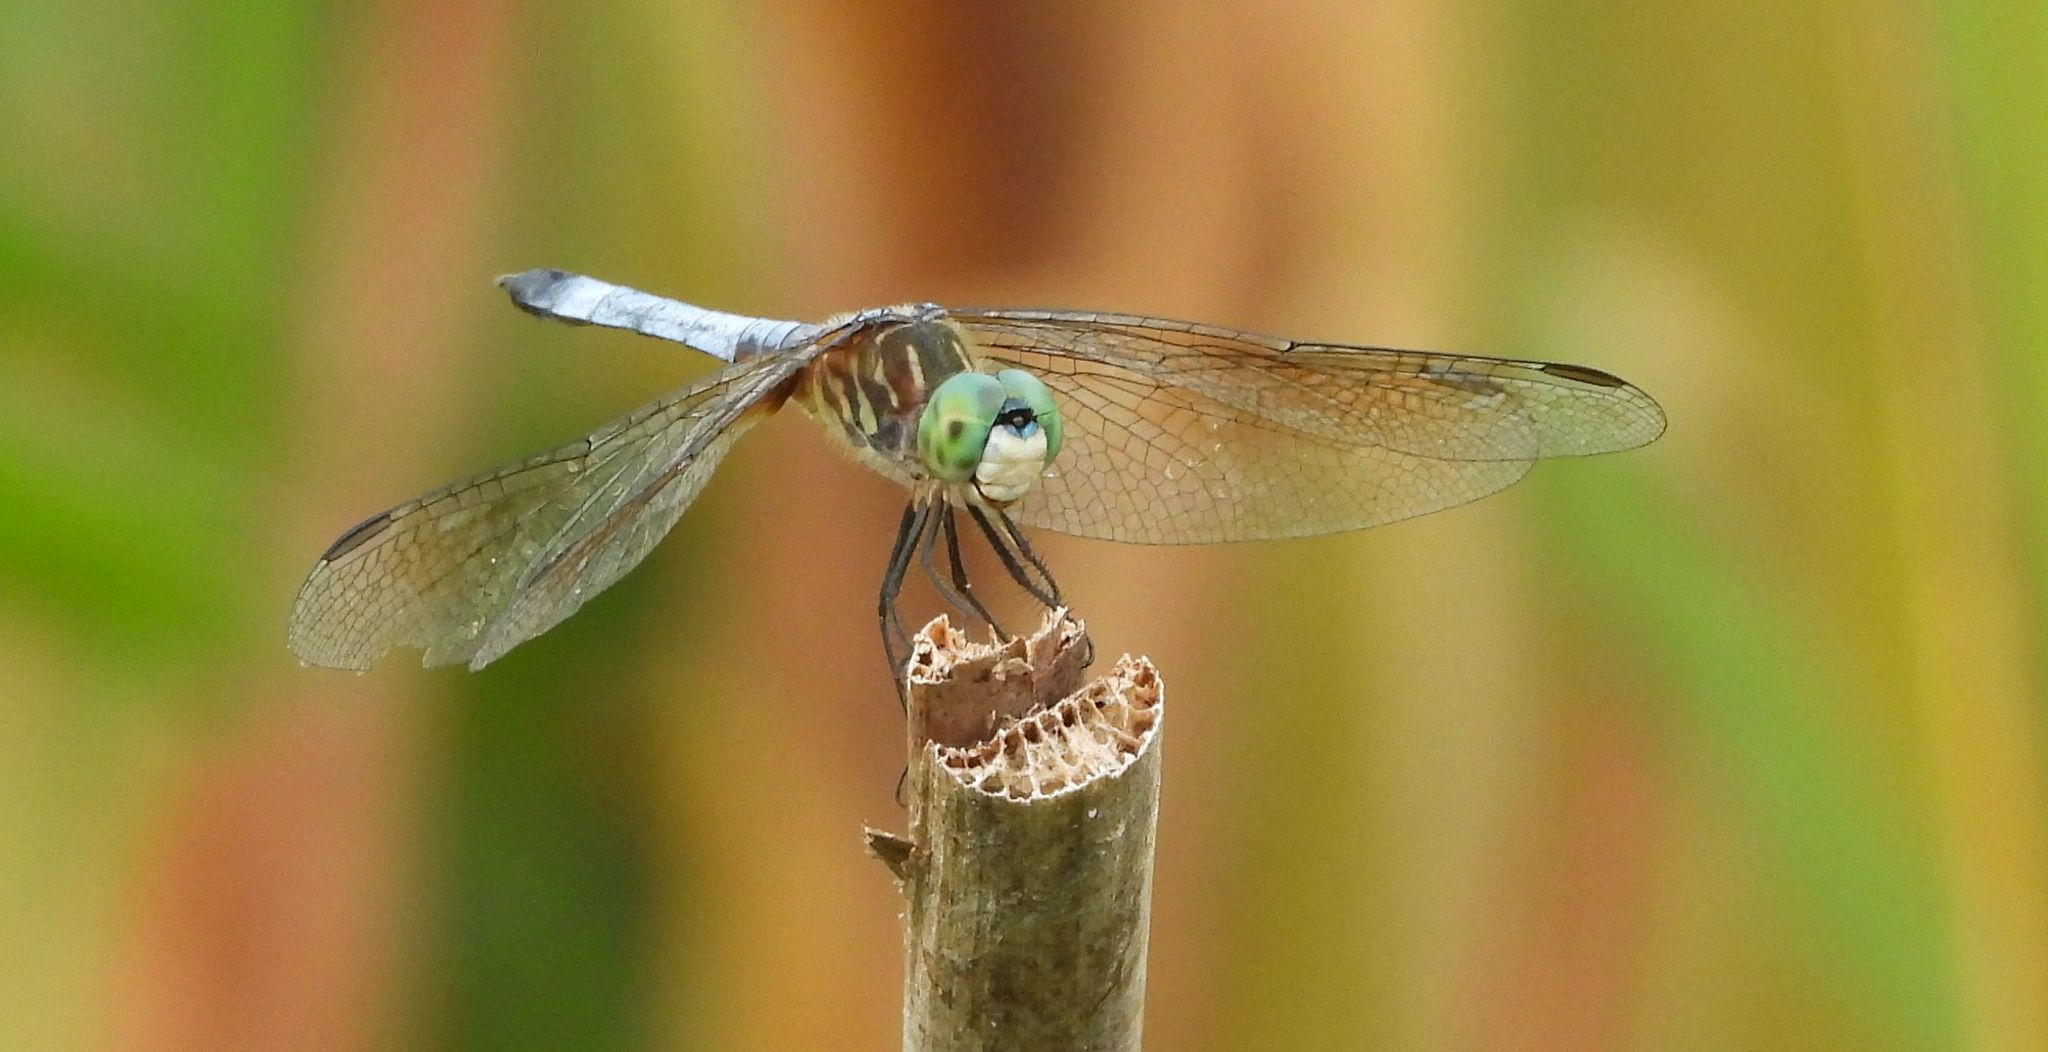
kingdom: Animalia
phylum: Arthropoda
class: Insecta
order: Odonata
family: Libellulidae
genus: Pachydiplax
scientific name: Pachydiplax longipennis
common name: Blue dasher
